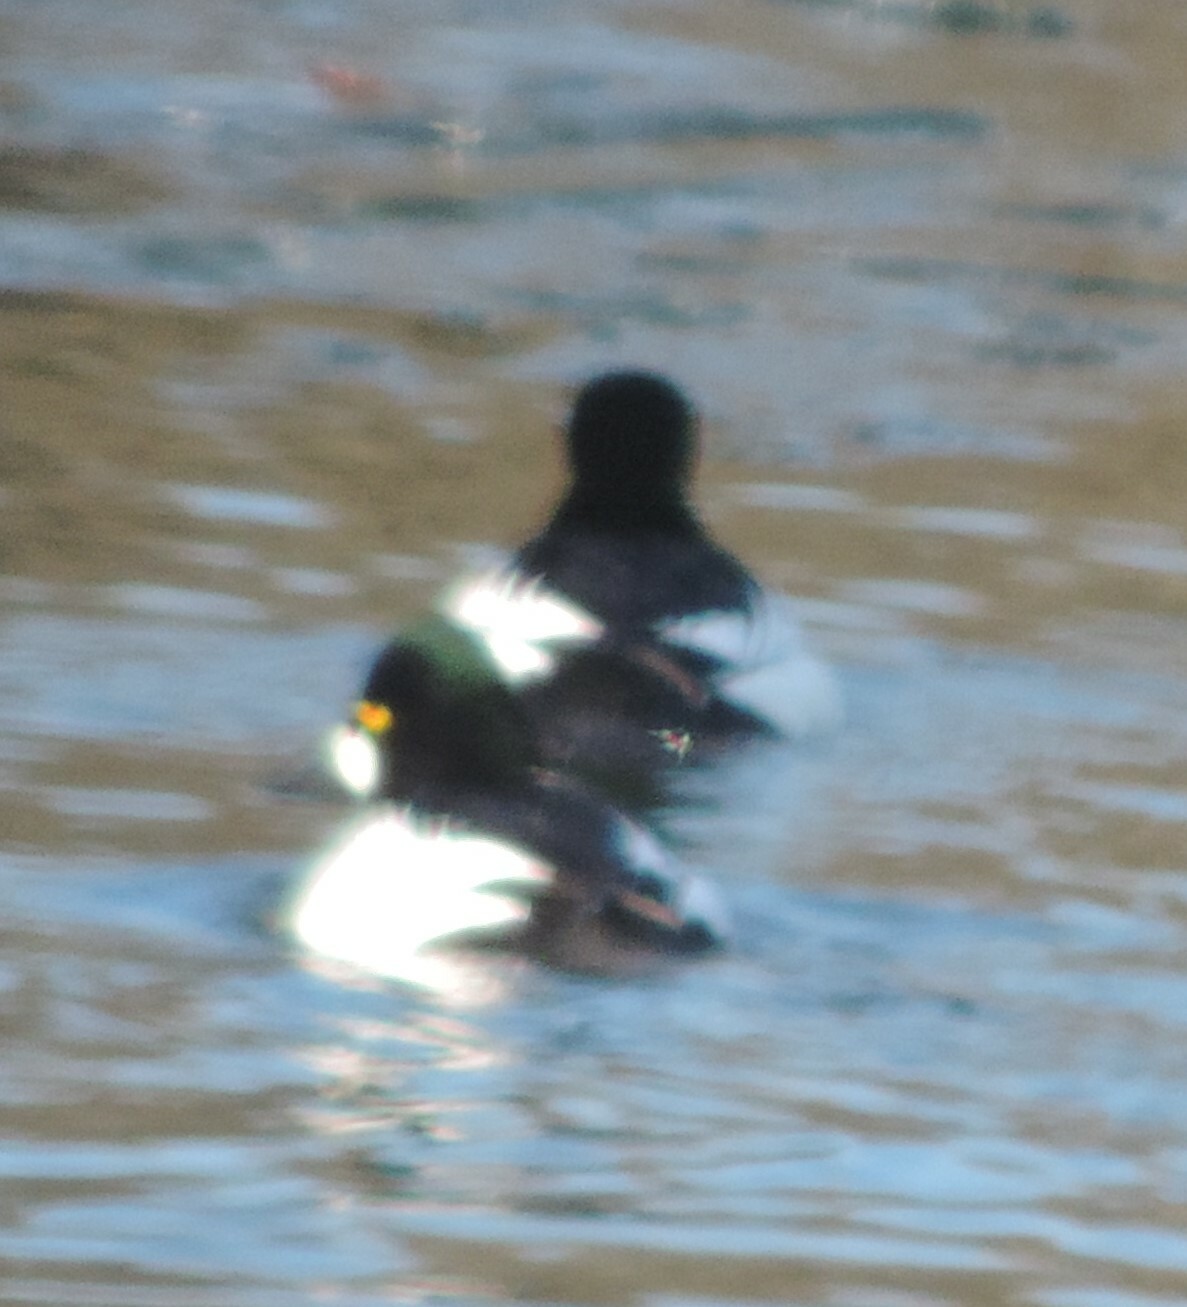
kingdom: Animalia
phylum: Chordata
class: Aves
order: Anseriformes
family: Anatidae
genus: Bucephala
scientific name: Bucephala clangula
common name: Common goldeneye
